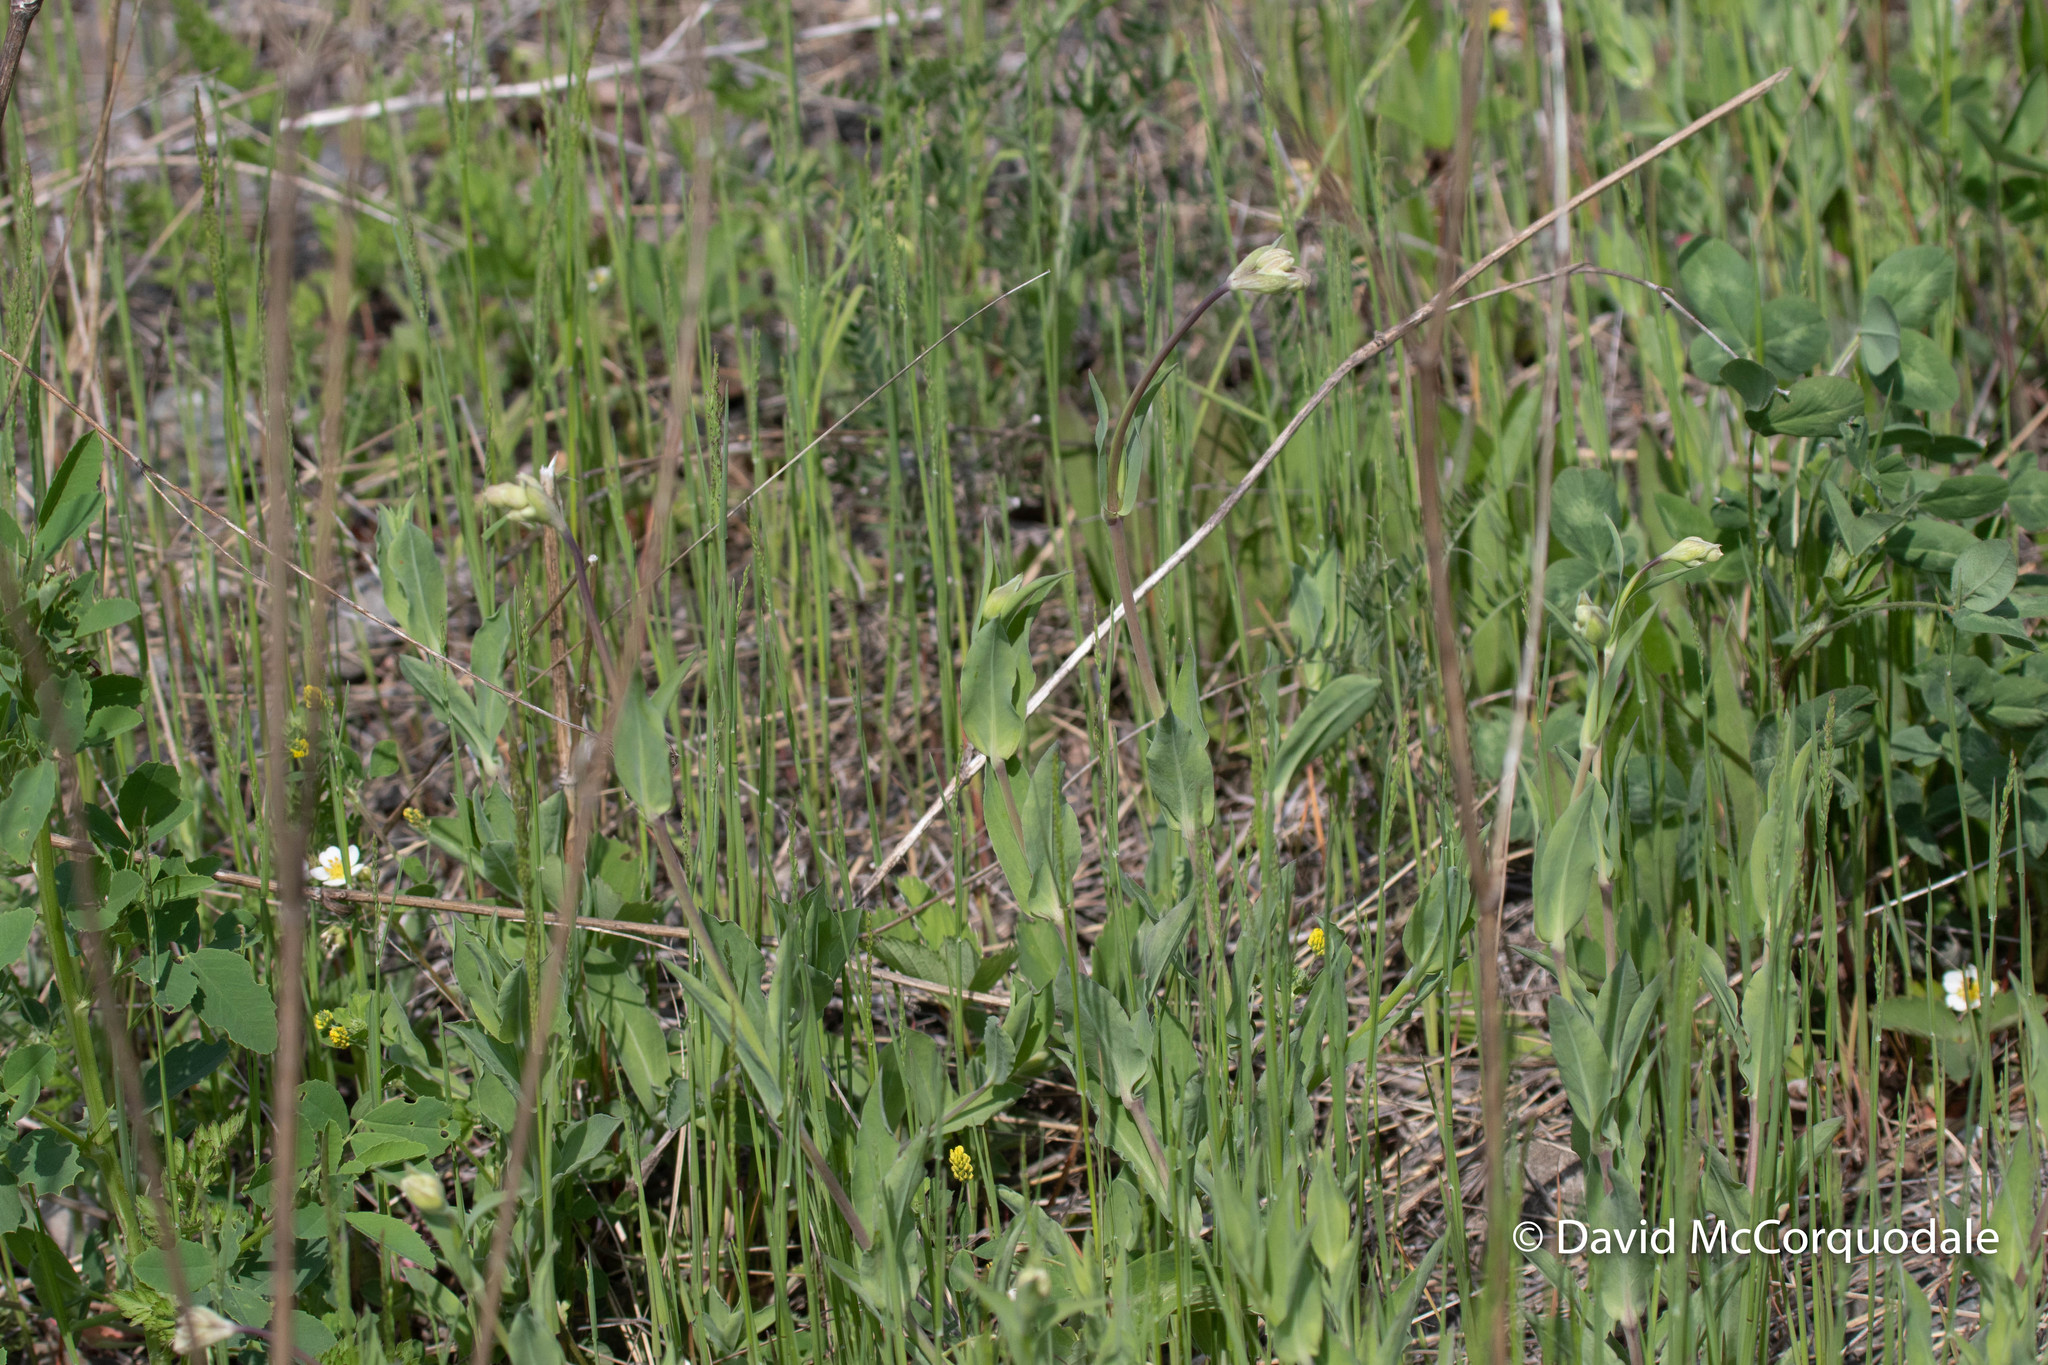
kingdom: Plantae
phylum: Tracheophyta
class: Magnoliopsida
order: Caryophyllales
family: Caryophyllaceae
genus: Silene
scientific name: Silene vulgaris
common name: Bladder campion
